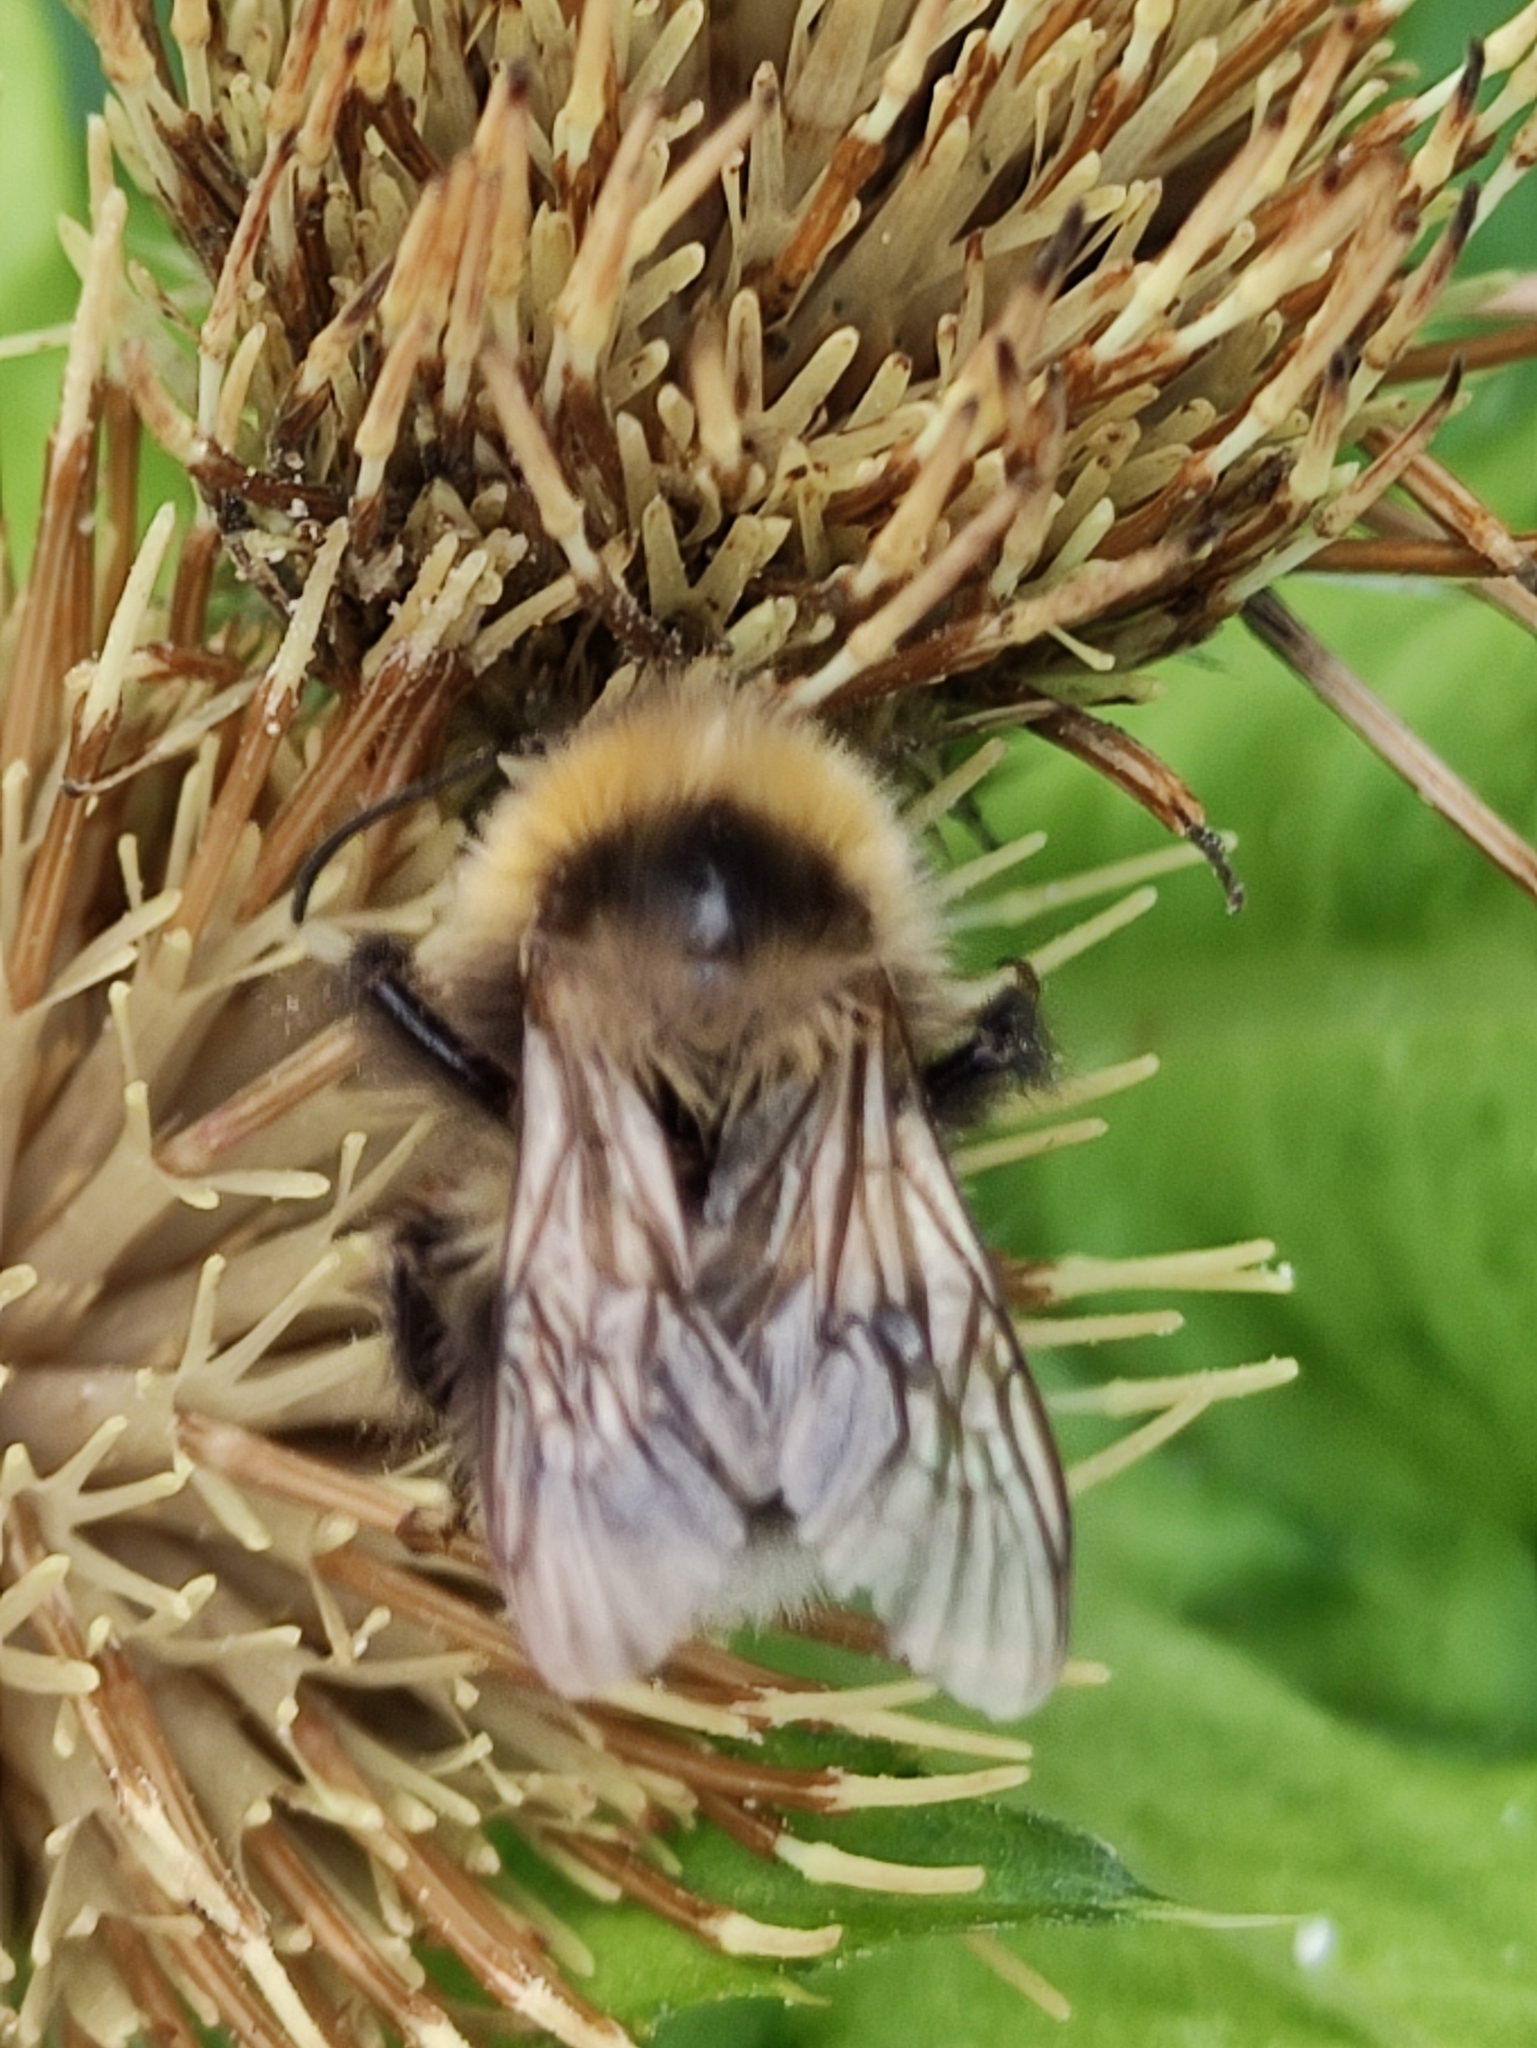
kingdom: Animalia
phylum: Arthropoda
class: Insecta
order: Hymenoptera
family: Apidae
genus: Bombus
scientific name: Bombus hortorum
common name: Garden bumblebee
